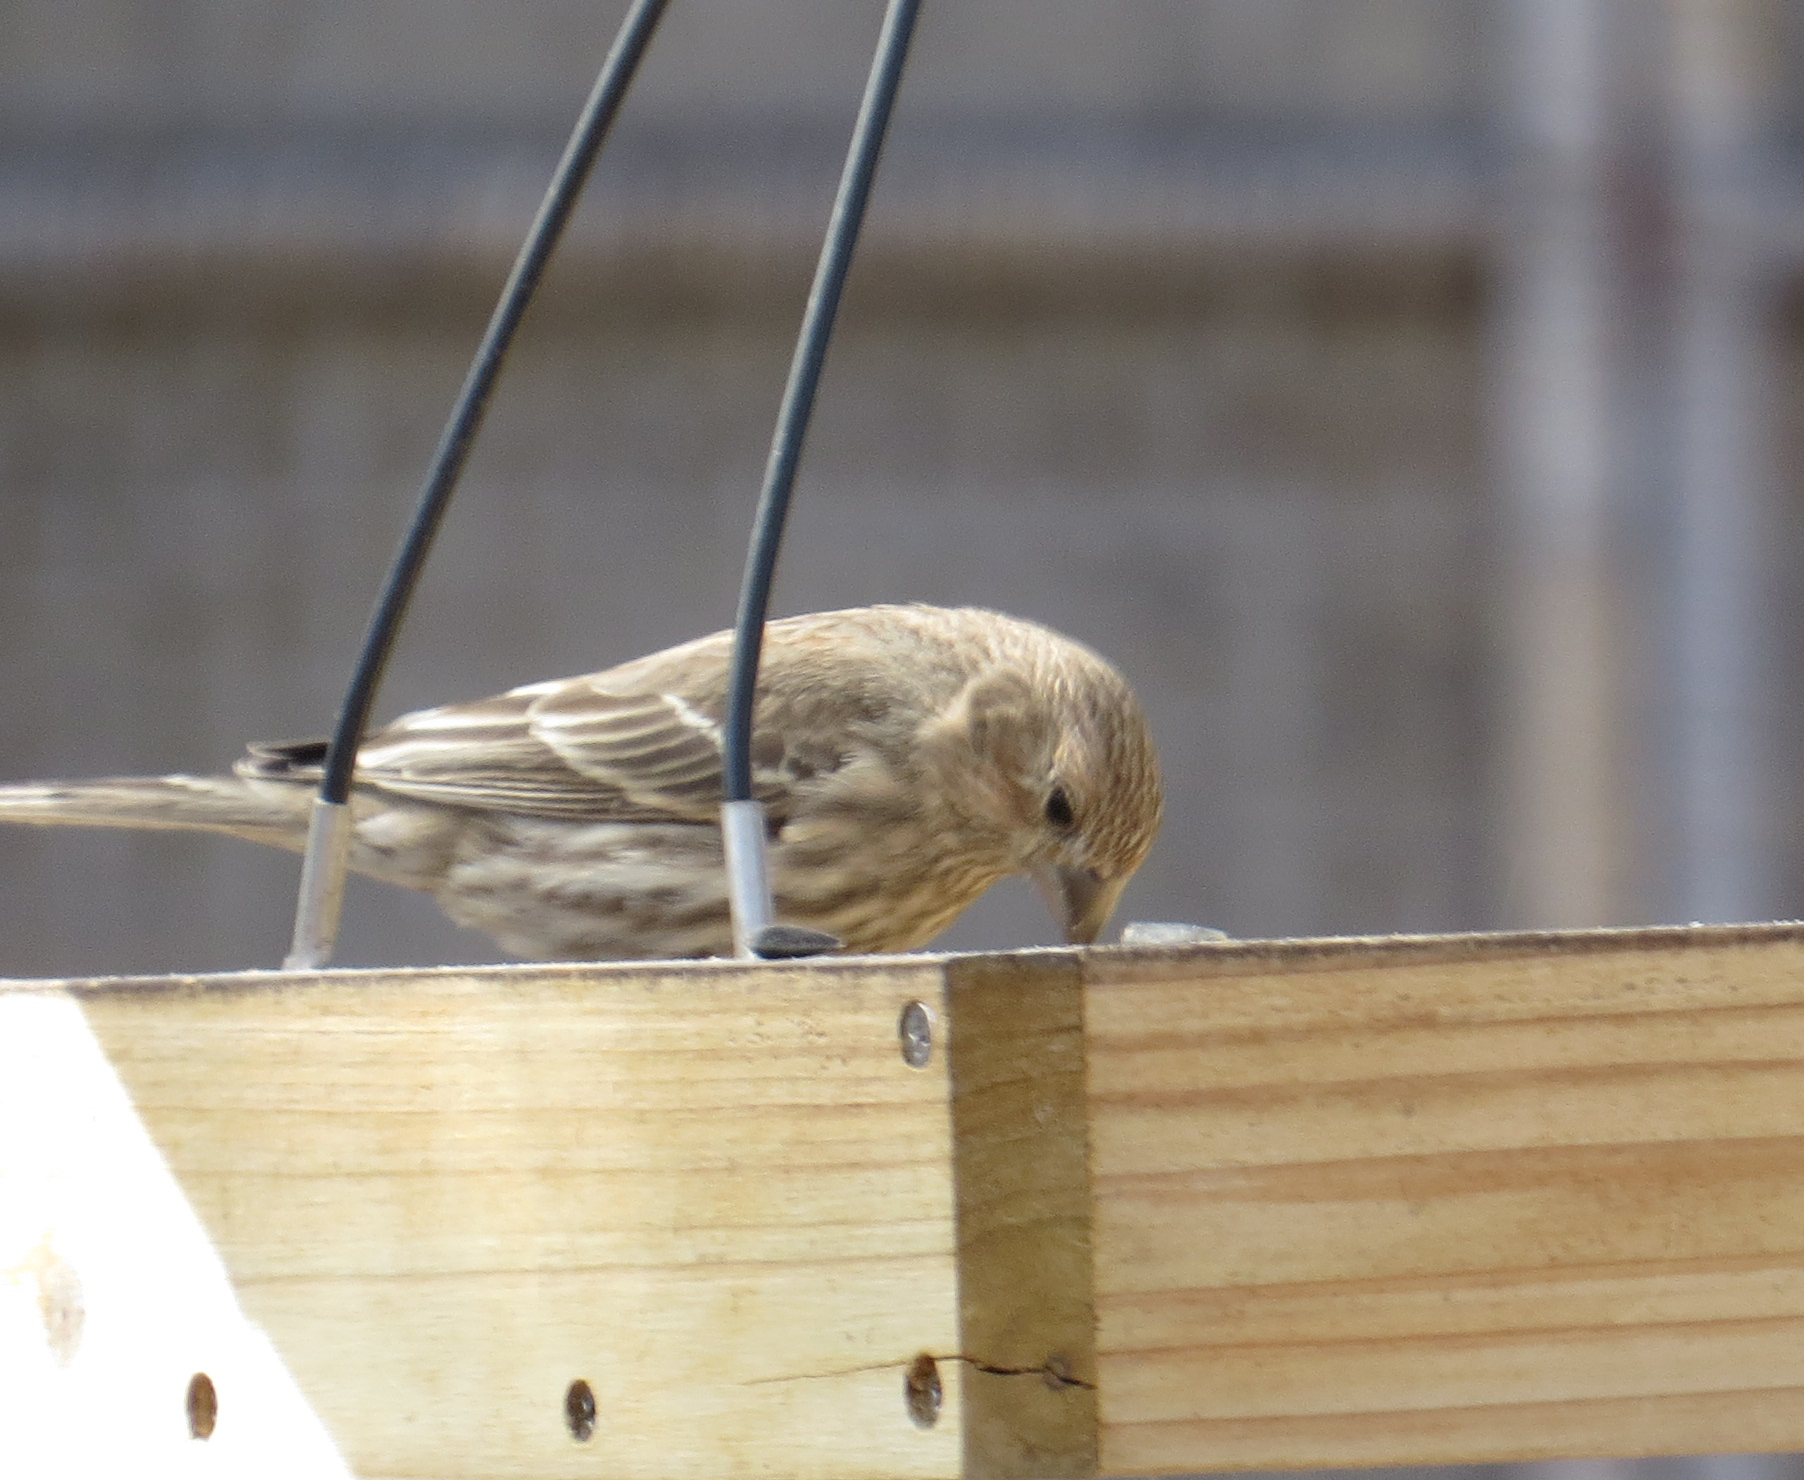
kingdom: Animalia
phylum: Chordata
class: Aves
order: Passeriformes
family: Fringillidae
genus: Haemorhous
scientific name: Haemorhous mexicanus
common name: House finch
